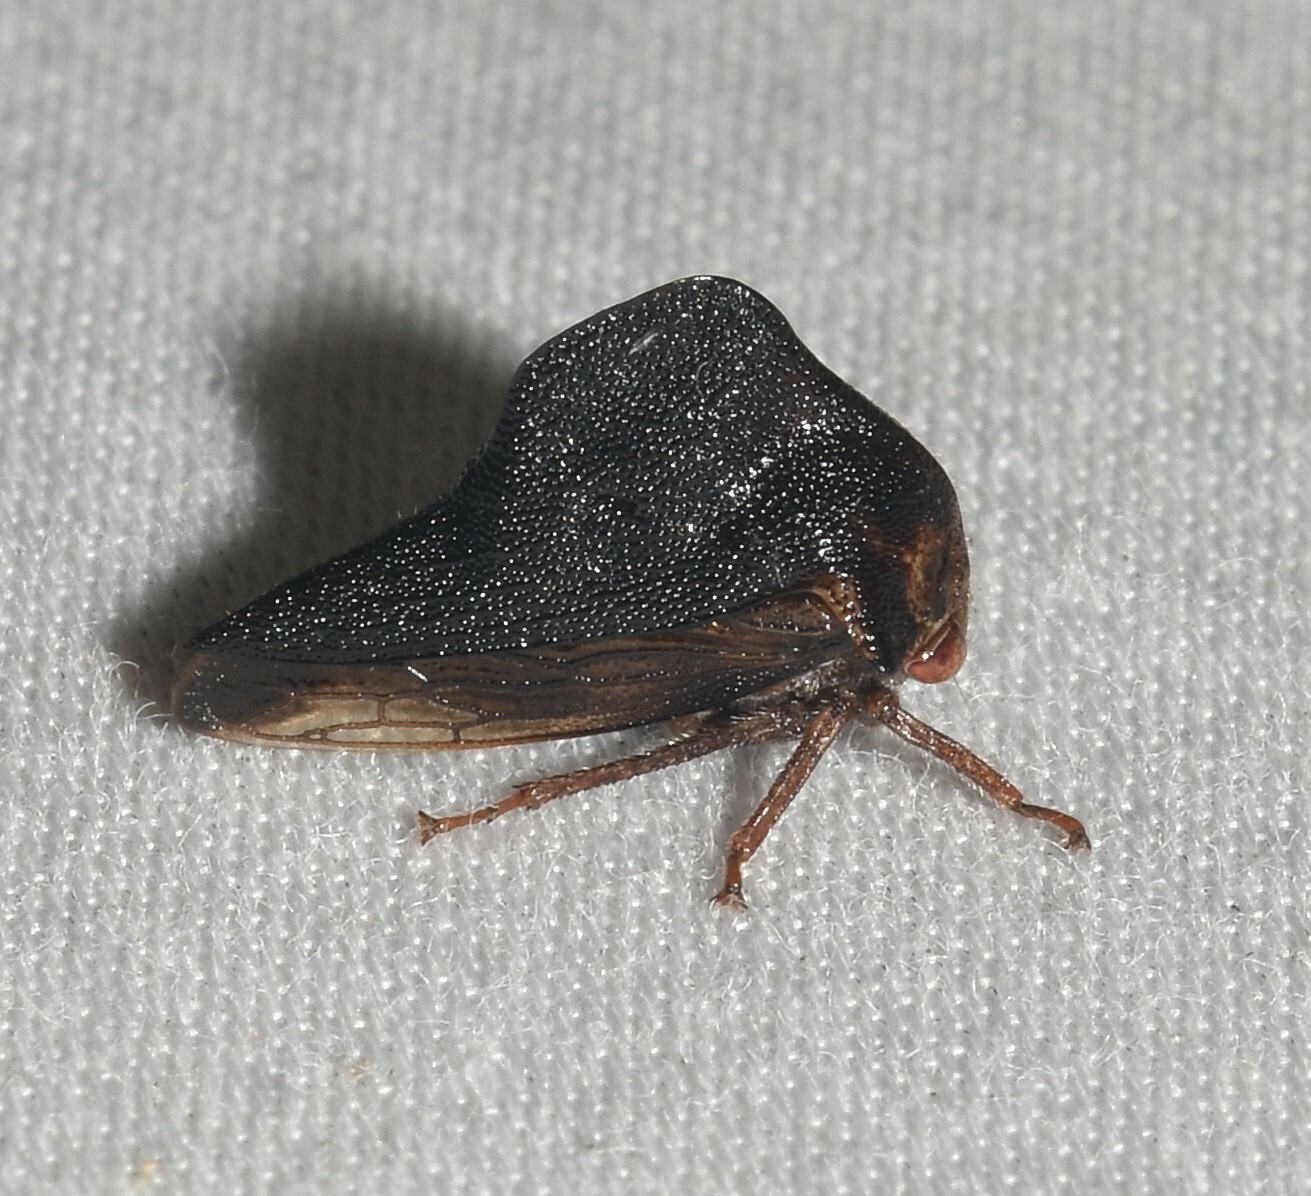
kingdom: Animalia
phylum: Arthropoda
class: Insecta
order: Hemiptera
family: Membracidae
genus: Telamona
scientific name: Telamona ampelopsidis
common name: Virginia creeper treehopper
